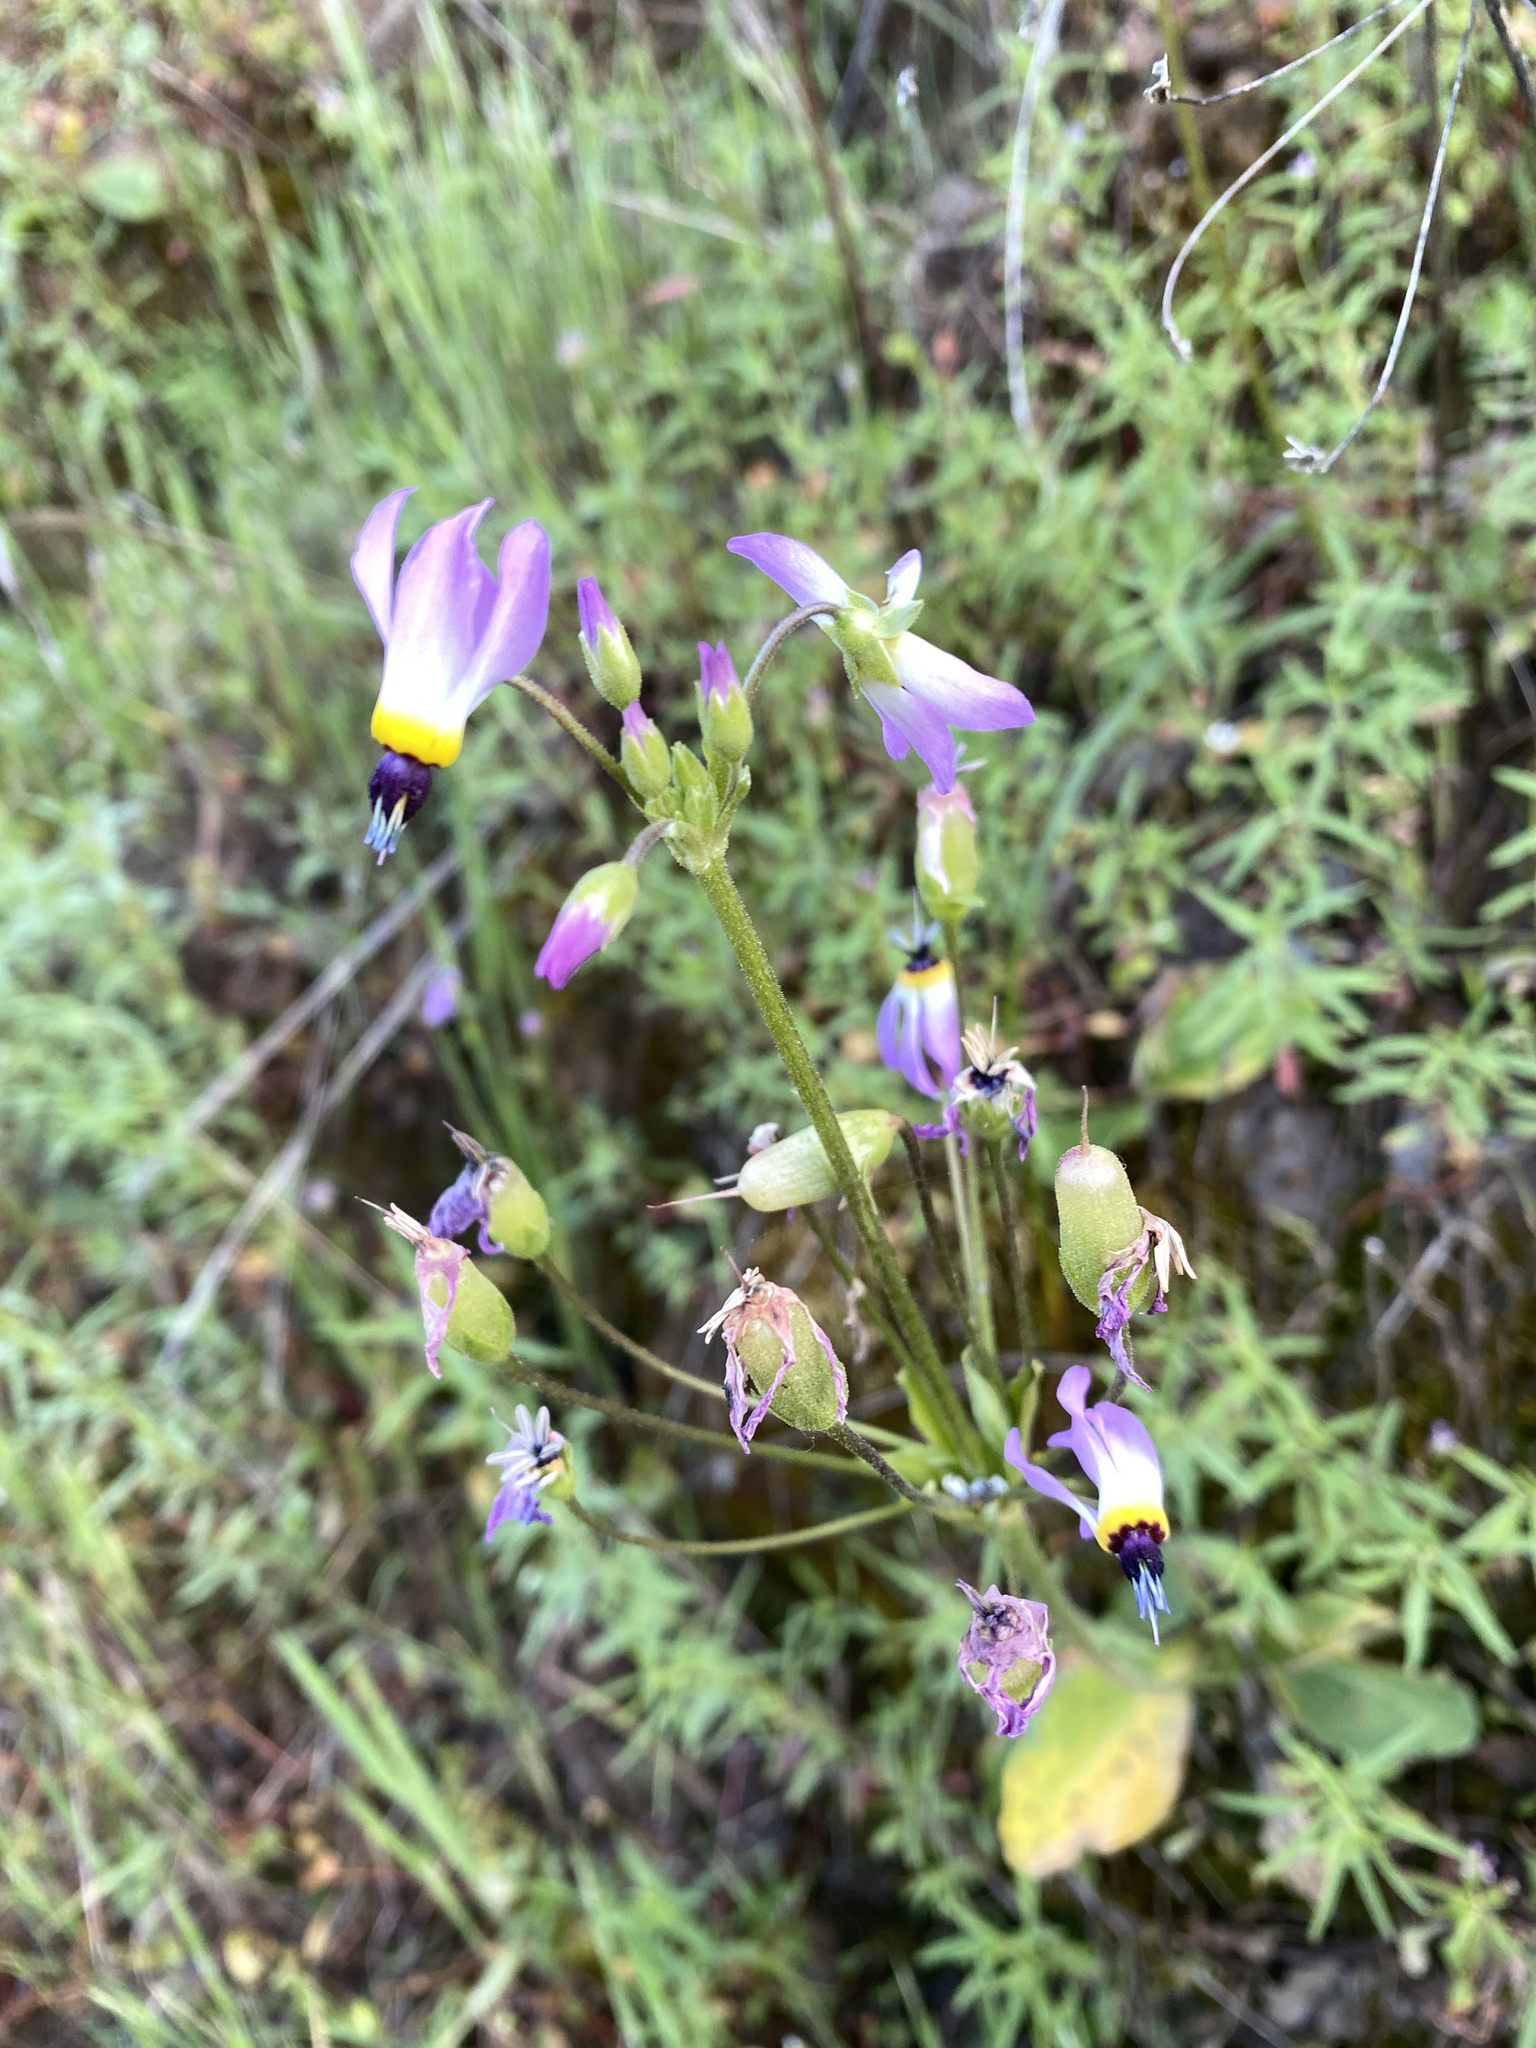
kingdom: Plantae
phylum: Tracheophyta
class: Magnoliopsida
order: Ericales
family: Primulaceae
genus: Dodecatheon
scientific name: Dodecatheon clevelandii
